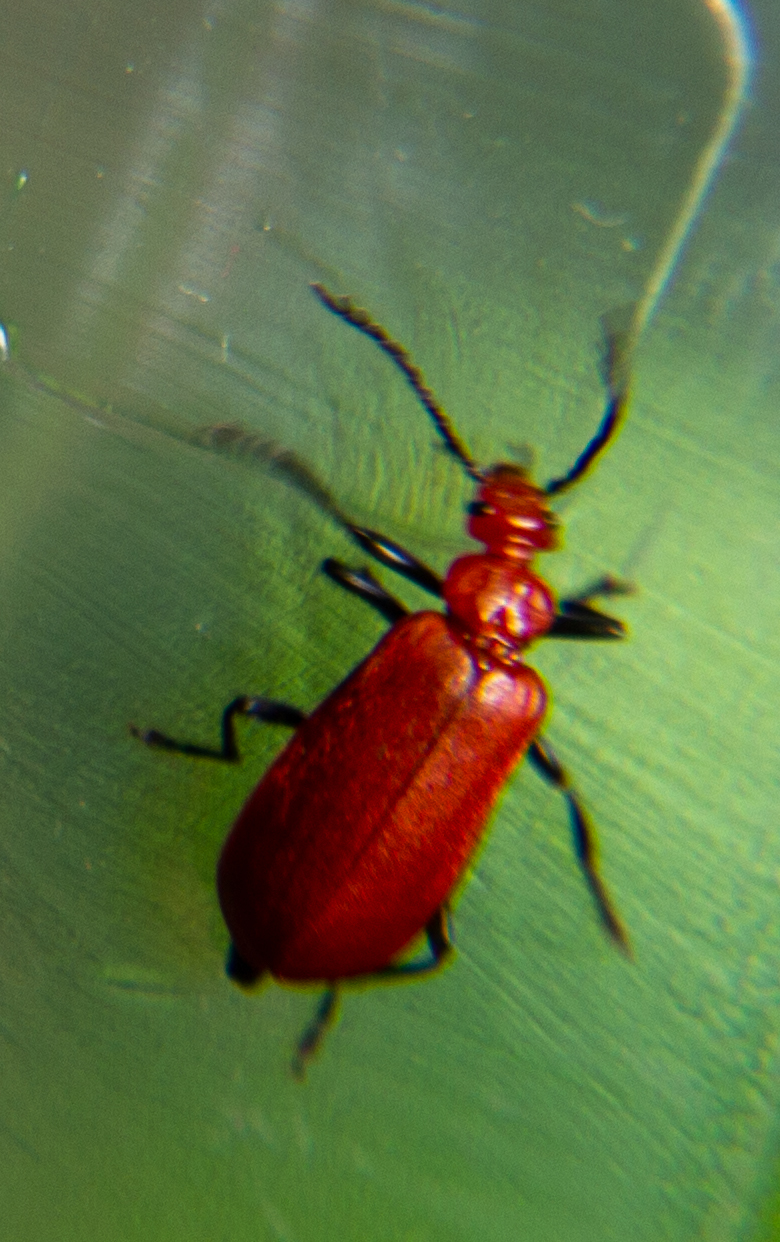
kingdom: Animalia
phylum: Arthropoda
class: Insecta
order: Coleoptera
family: Pyrochroidae
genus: Pyrochroa
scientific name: Pyrochroa serraticornis
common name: Red-headed cardinal beetle
